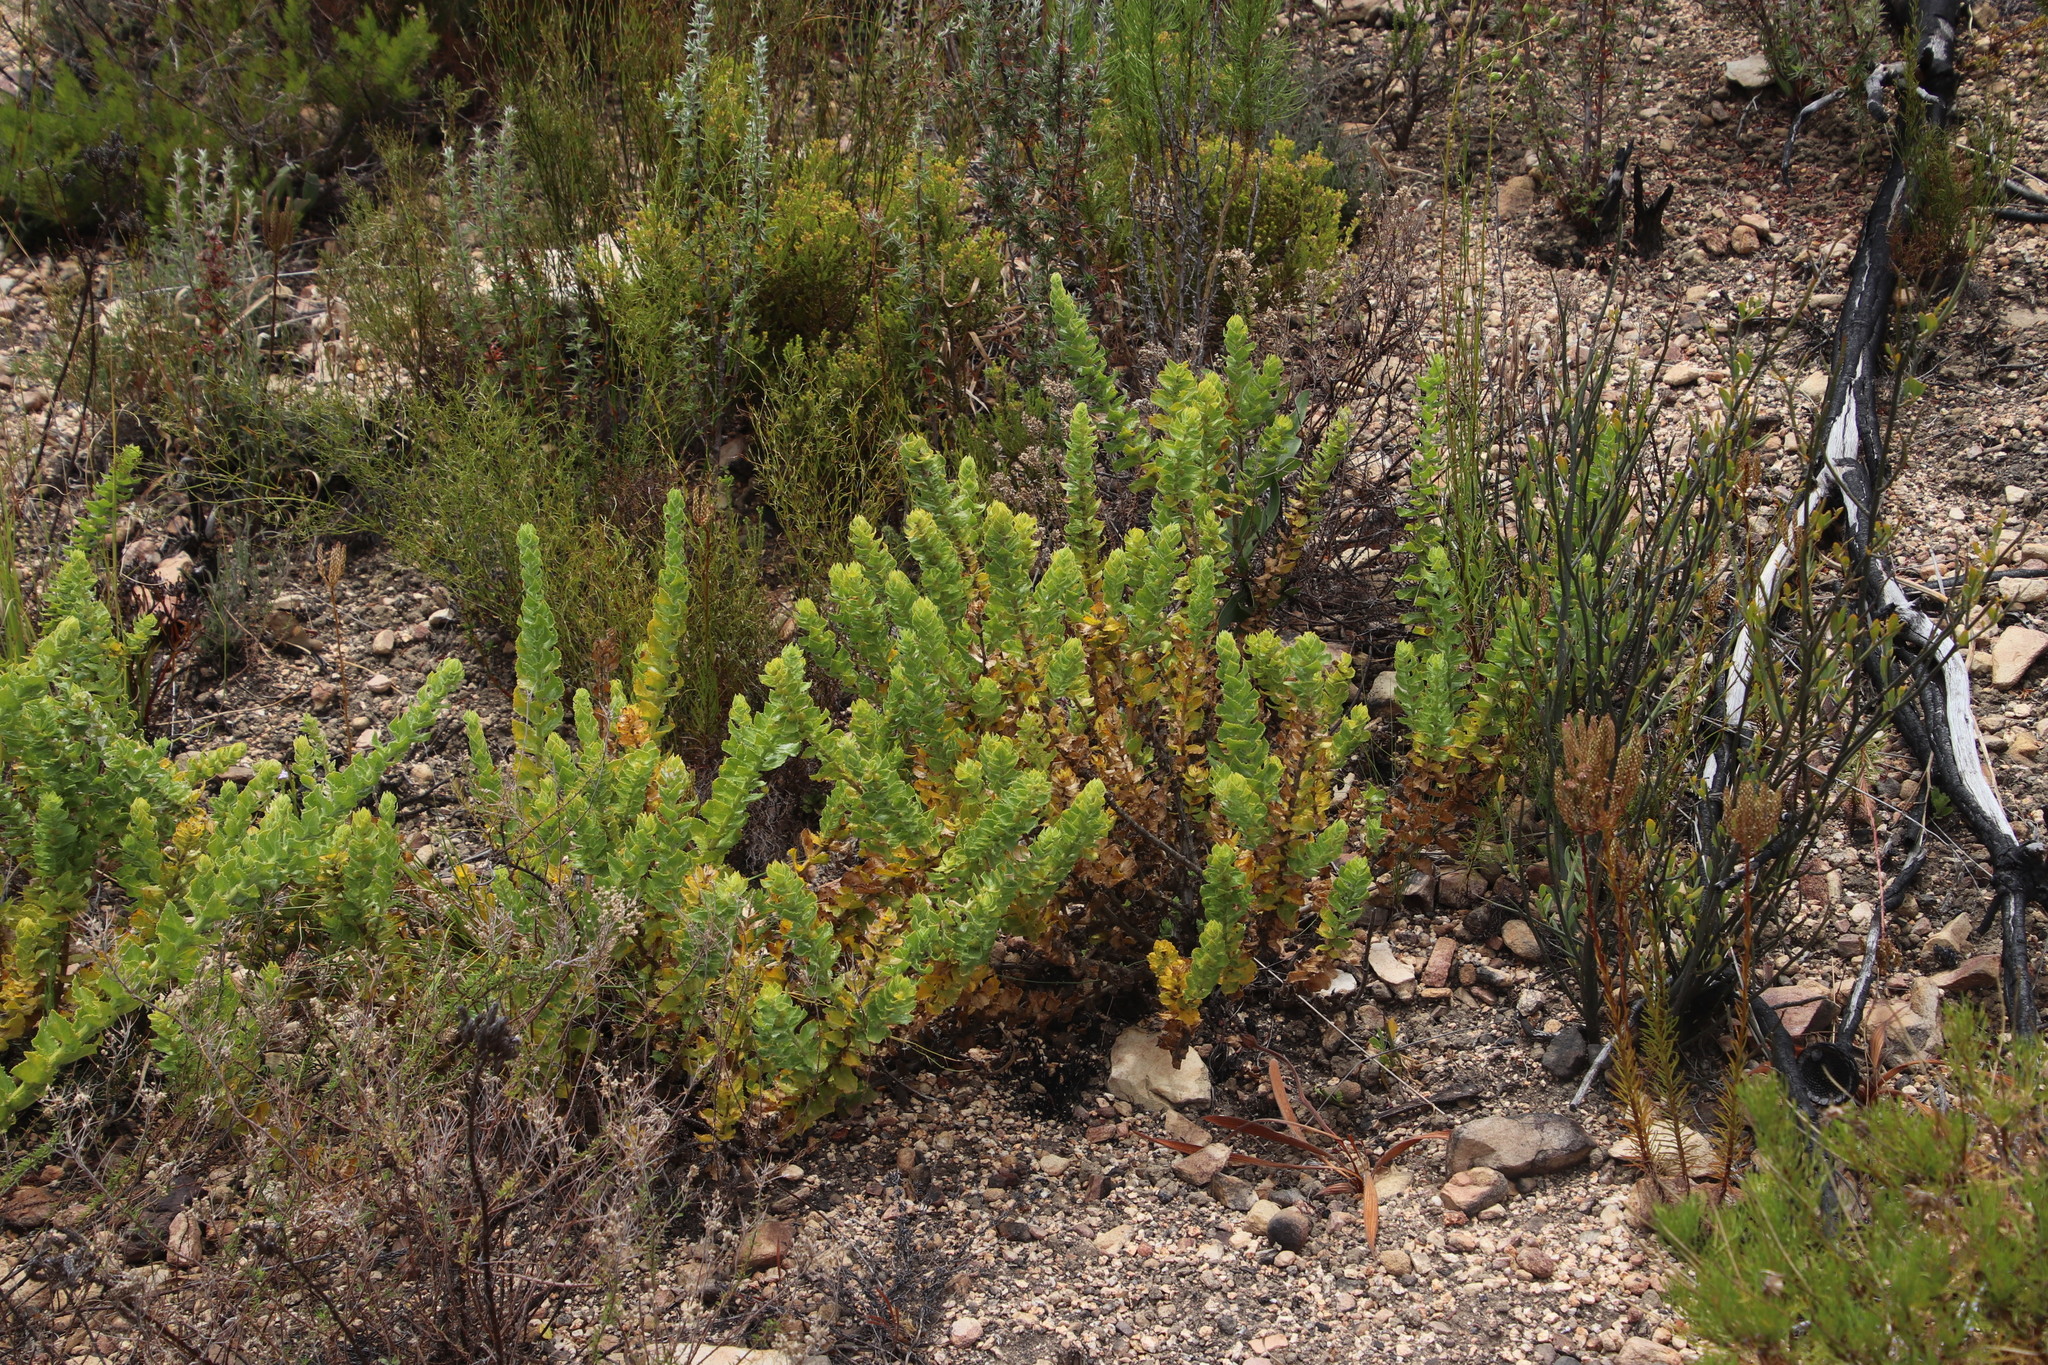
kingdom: Plantae
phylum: Tracheophyta
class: Magnoliopsida
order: Lamiales
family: Scrophulariaceae
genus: Oftia
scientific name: Oftia africana
